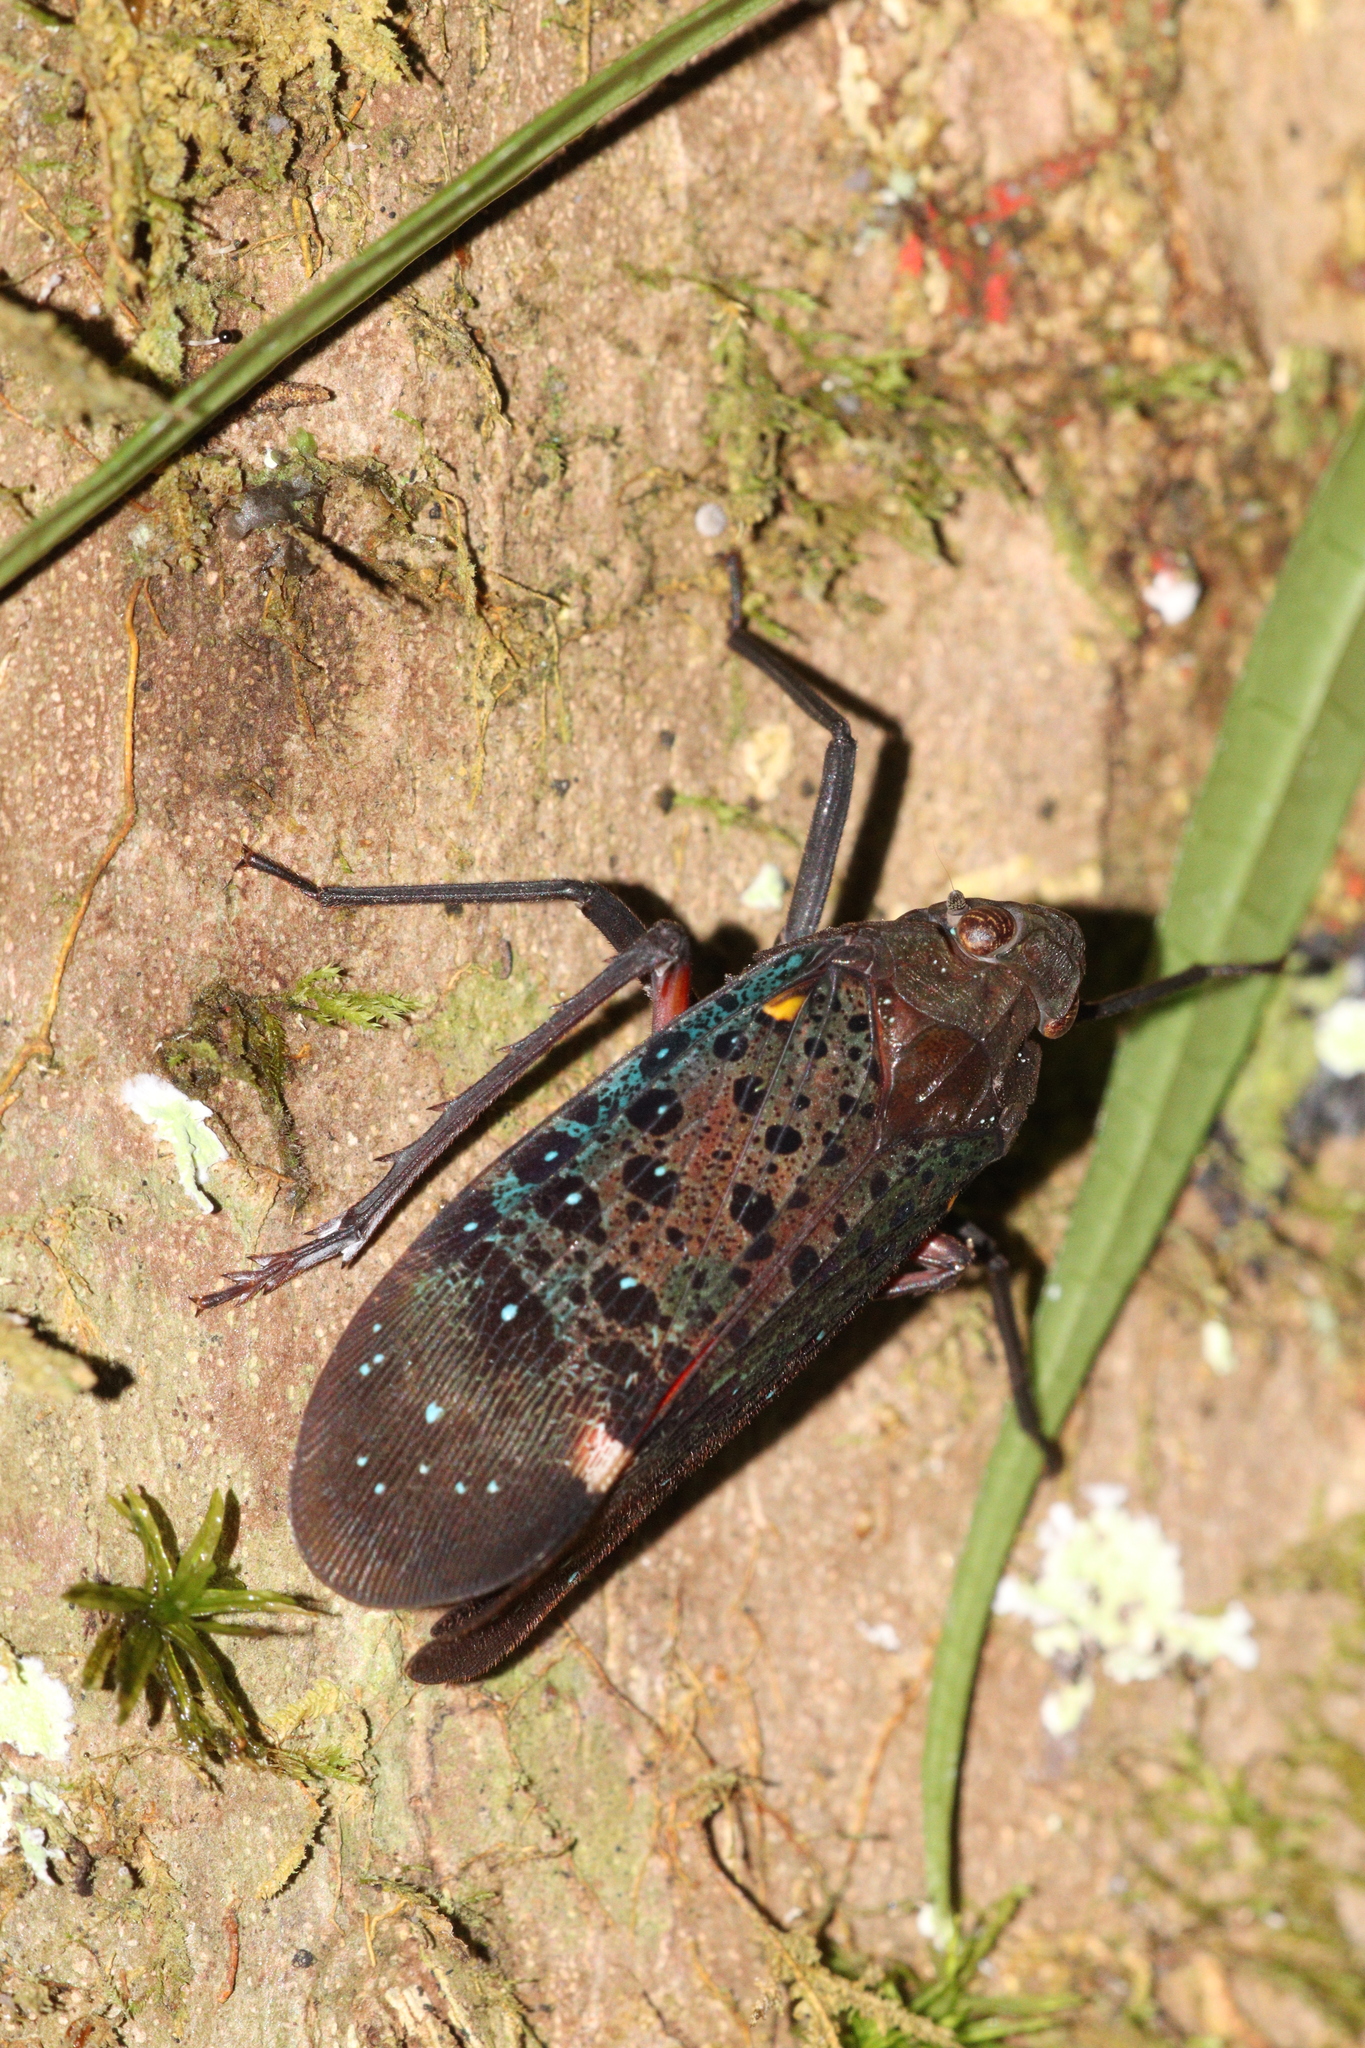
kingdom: Animalia
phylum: Arthropoda
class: Insecta
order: Hemiptera
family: Fulgoridae
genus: Penthicodes
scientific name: Penthicodes rugulosa
